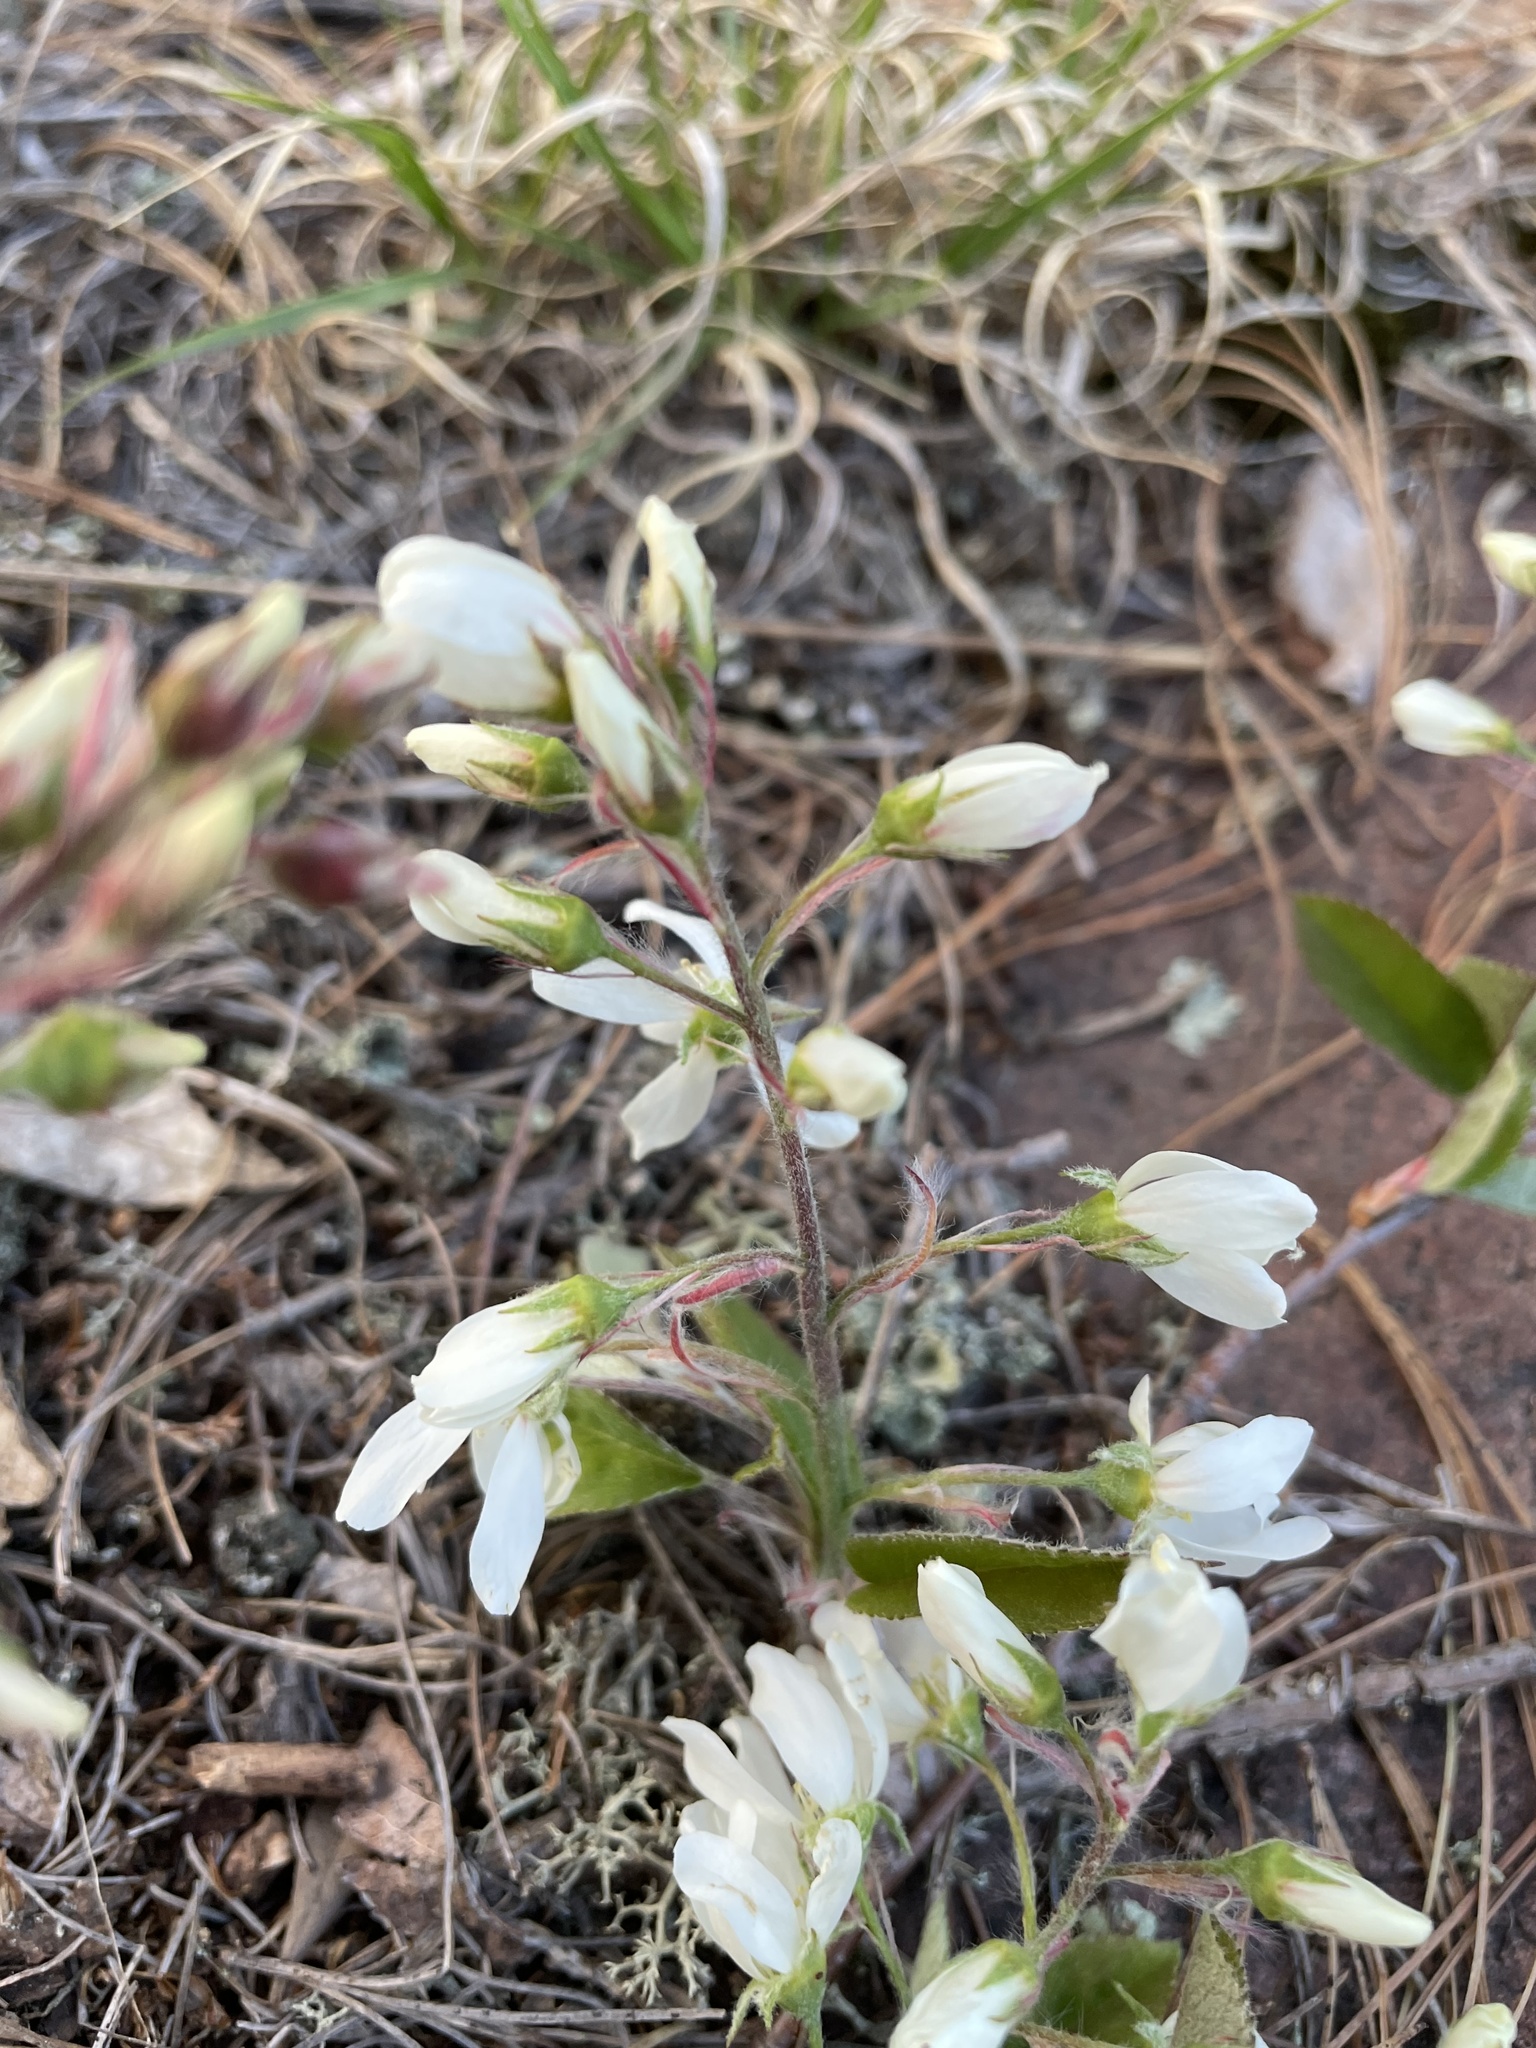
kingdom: Plantae
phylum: Tracheophyta
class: Magnoliopsida
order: Rosales
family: Rosaceae
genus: Amelanchier
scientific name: Amelanchier arborea
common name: Downy serviceberry
